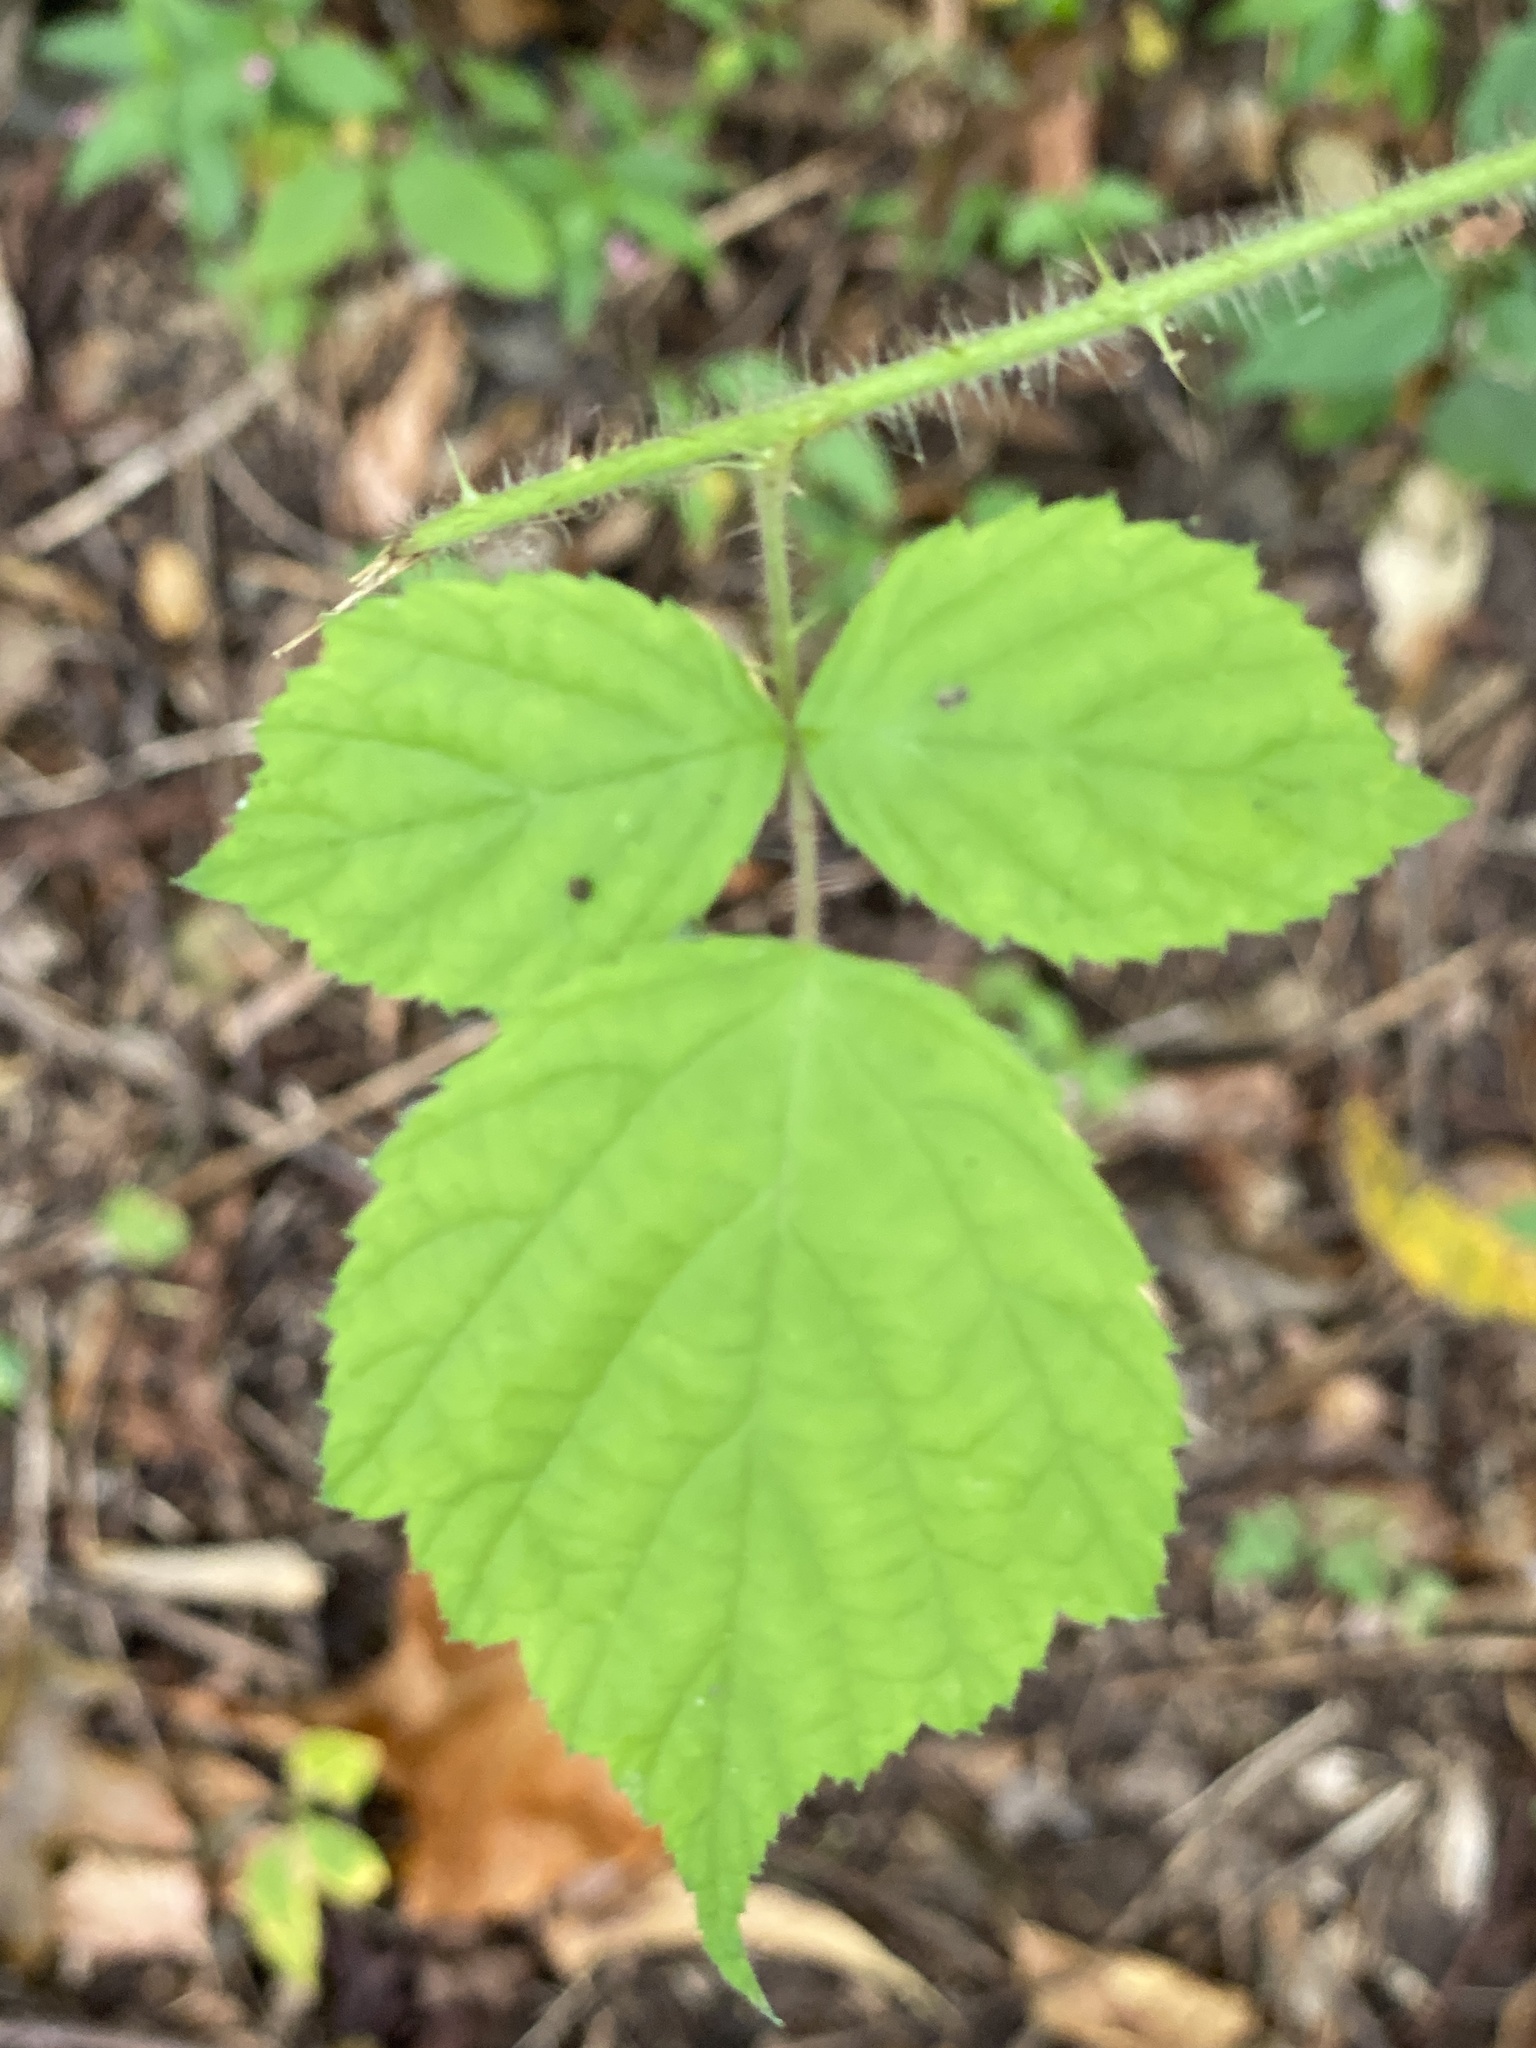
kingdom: Plantae
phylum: Tracheophyta
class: Magnoliopsida
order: Rosales
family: Rosaceae
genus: Rubus
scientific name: Rubus phoenicolasius
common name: Japanese wineberry
